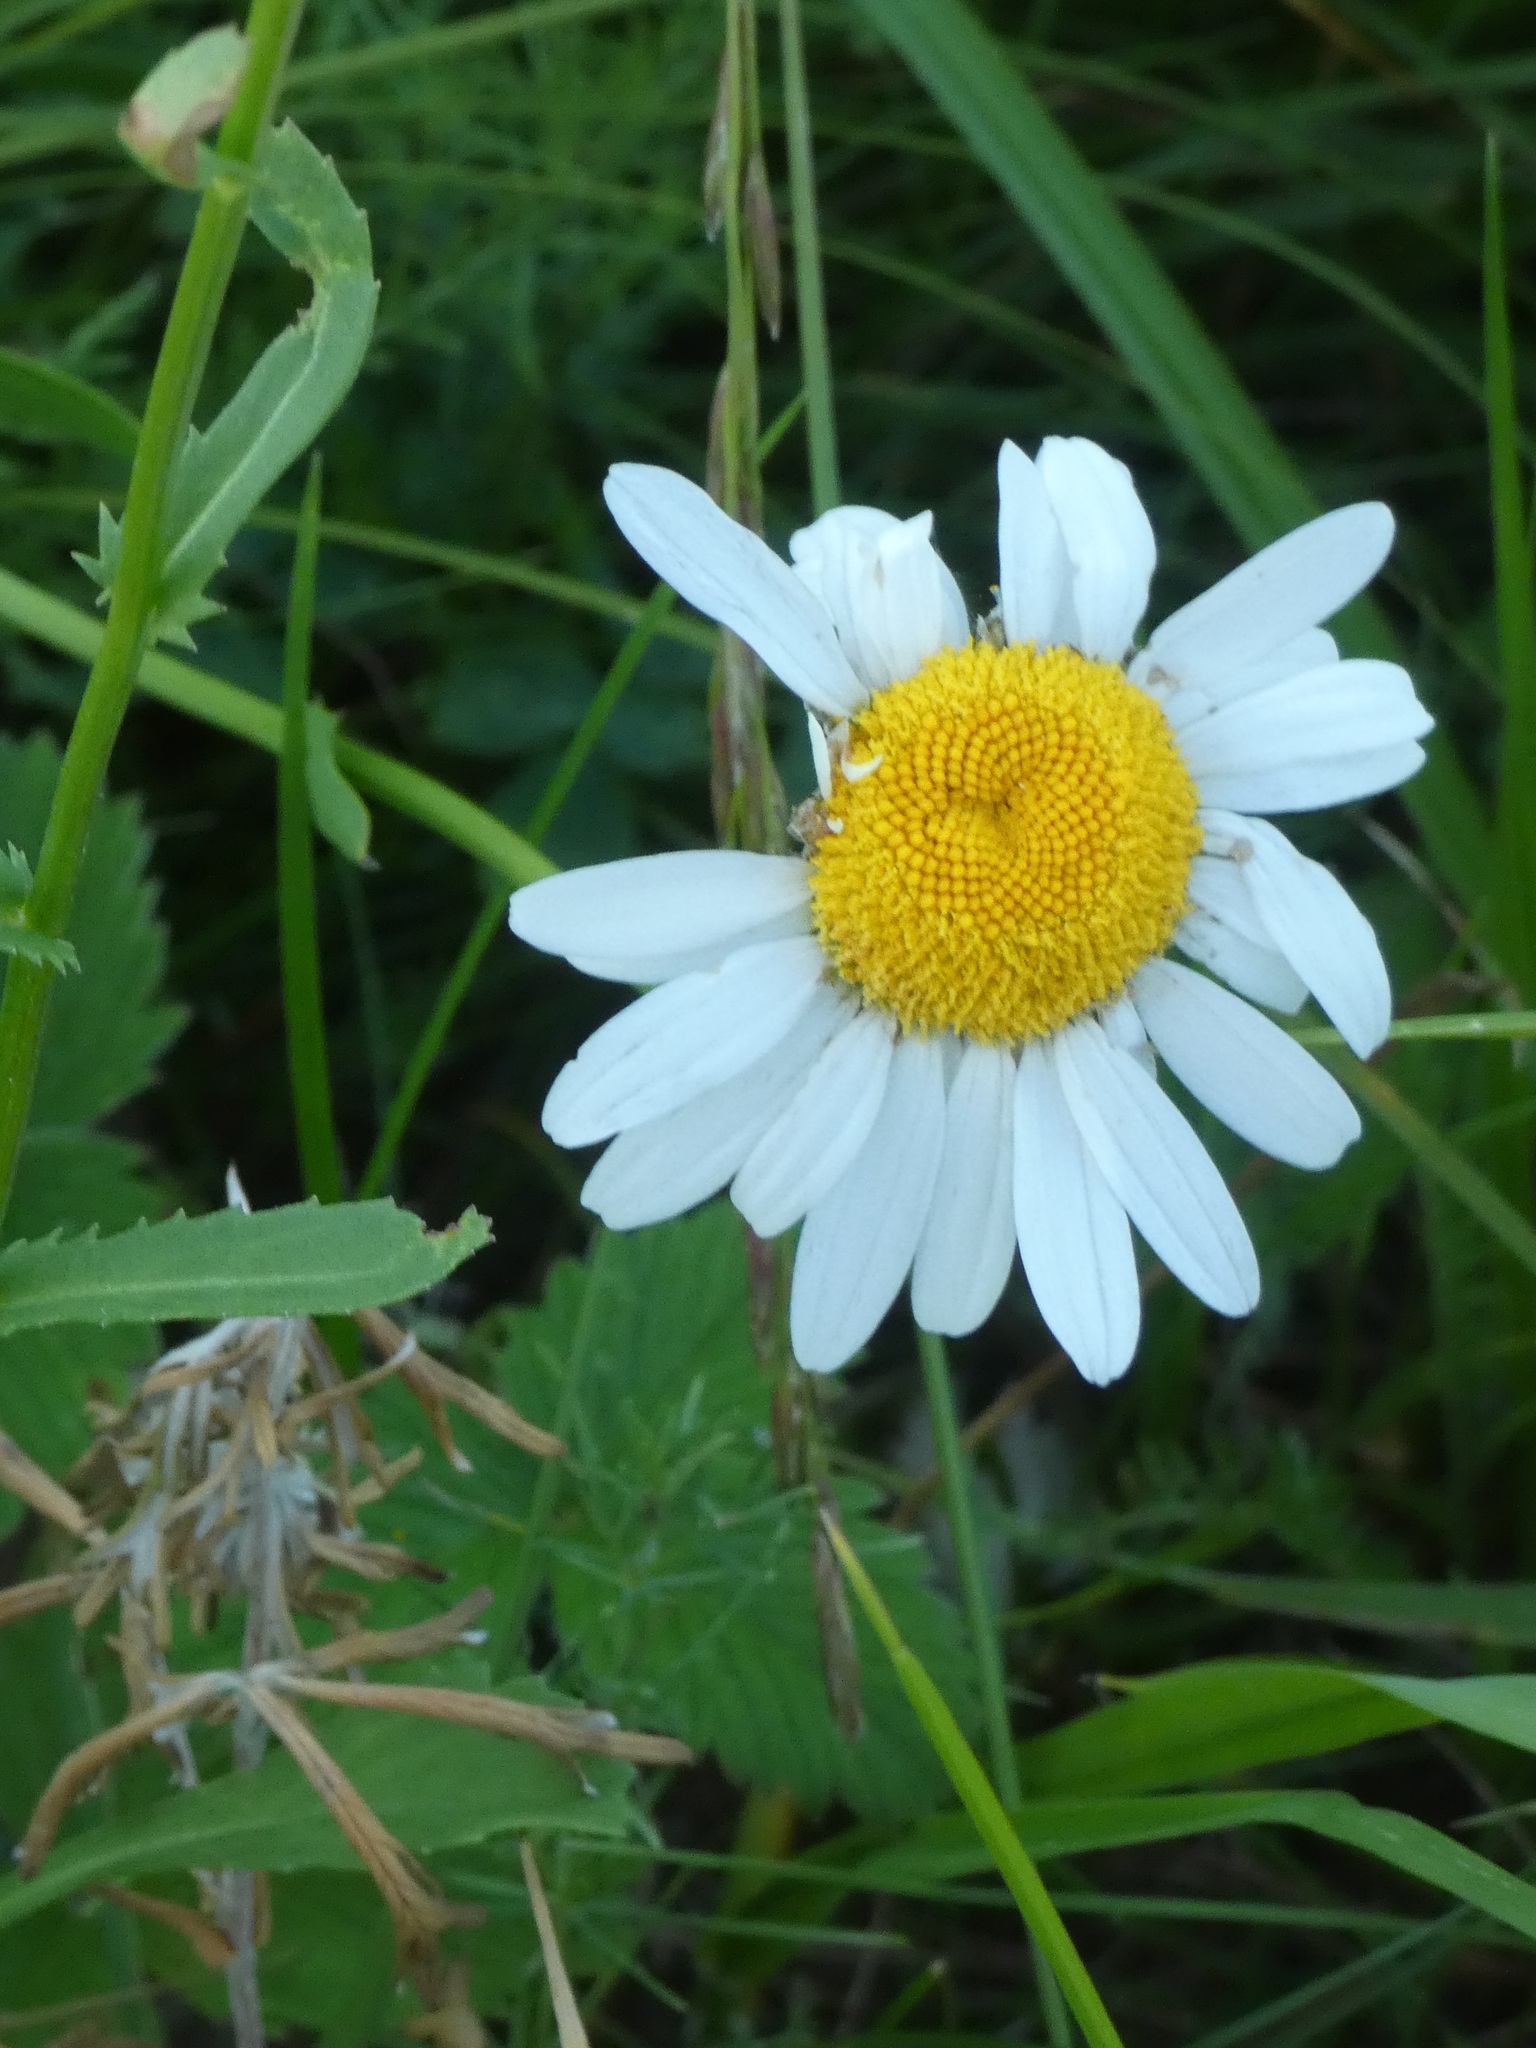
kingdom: Plantae
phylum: Tracheophyta
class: Magnoliopsida
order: Asterales
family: Asteraceae
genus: Leucanthemum
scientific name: Leucanthemum vulgare
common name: Oxeye daisy
